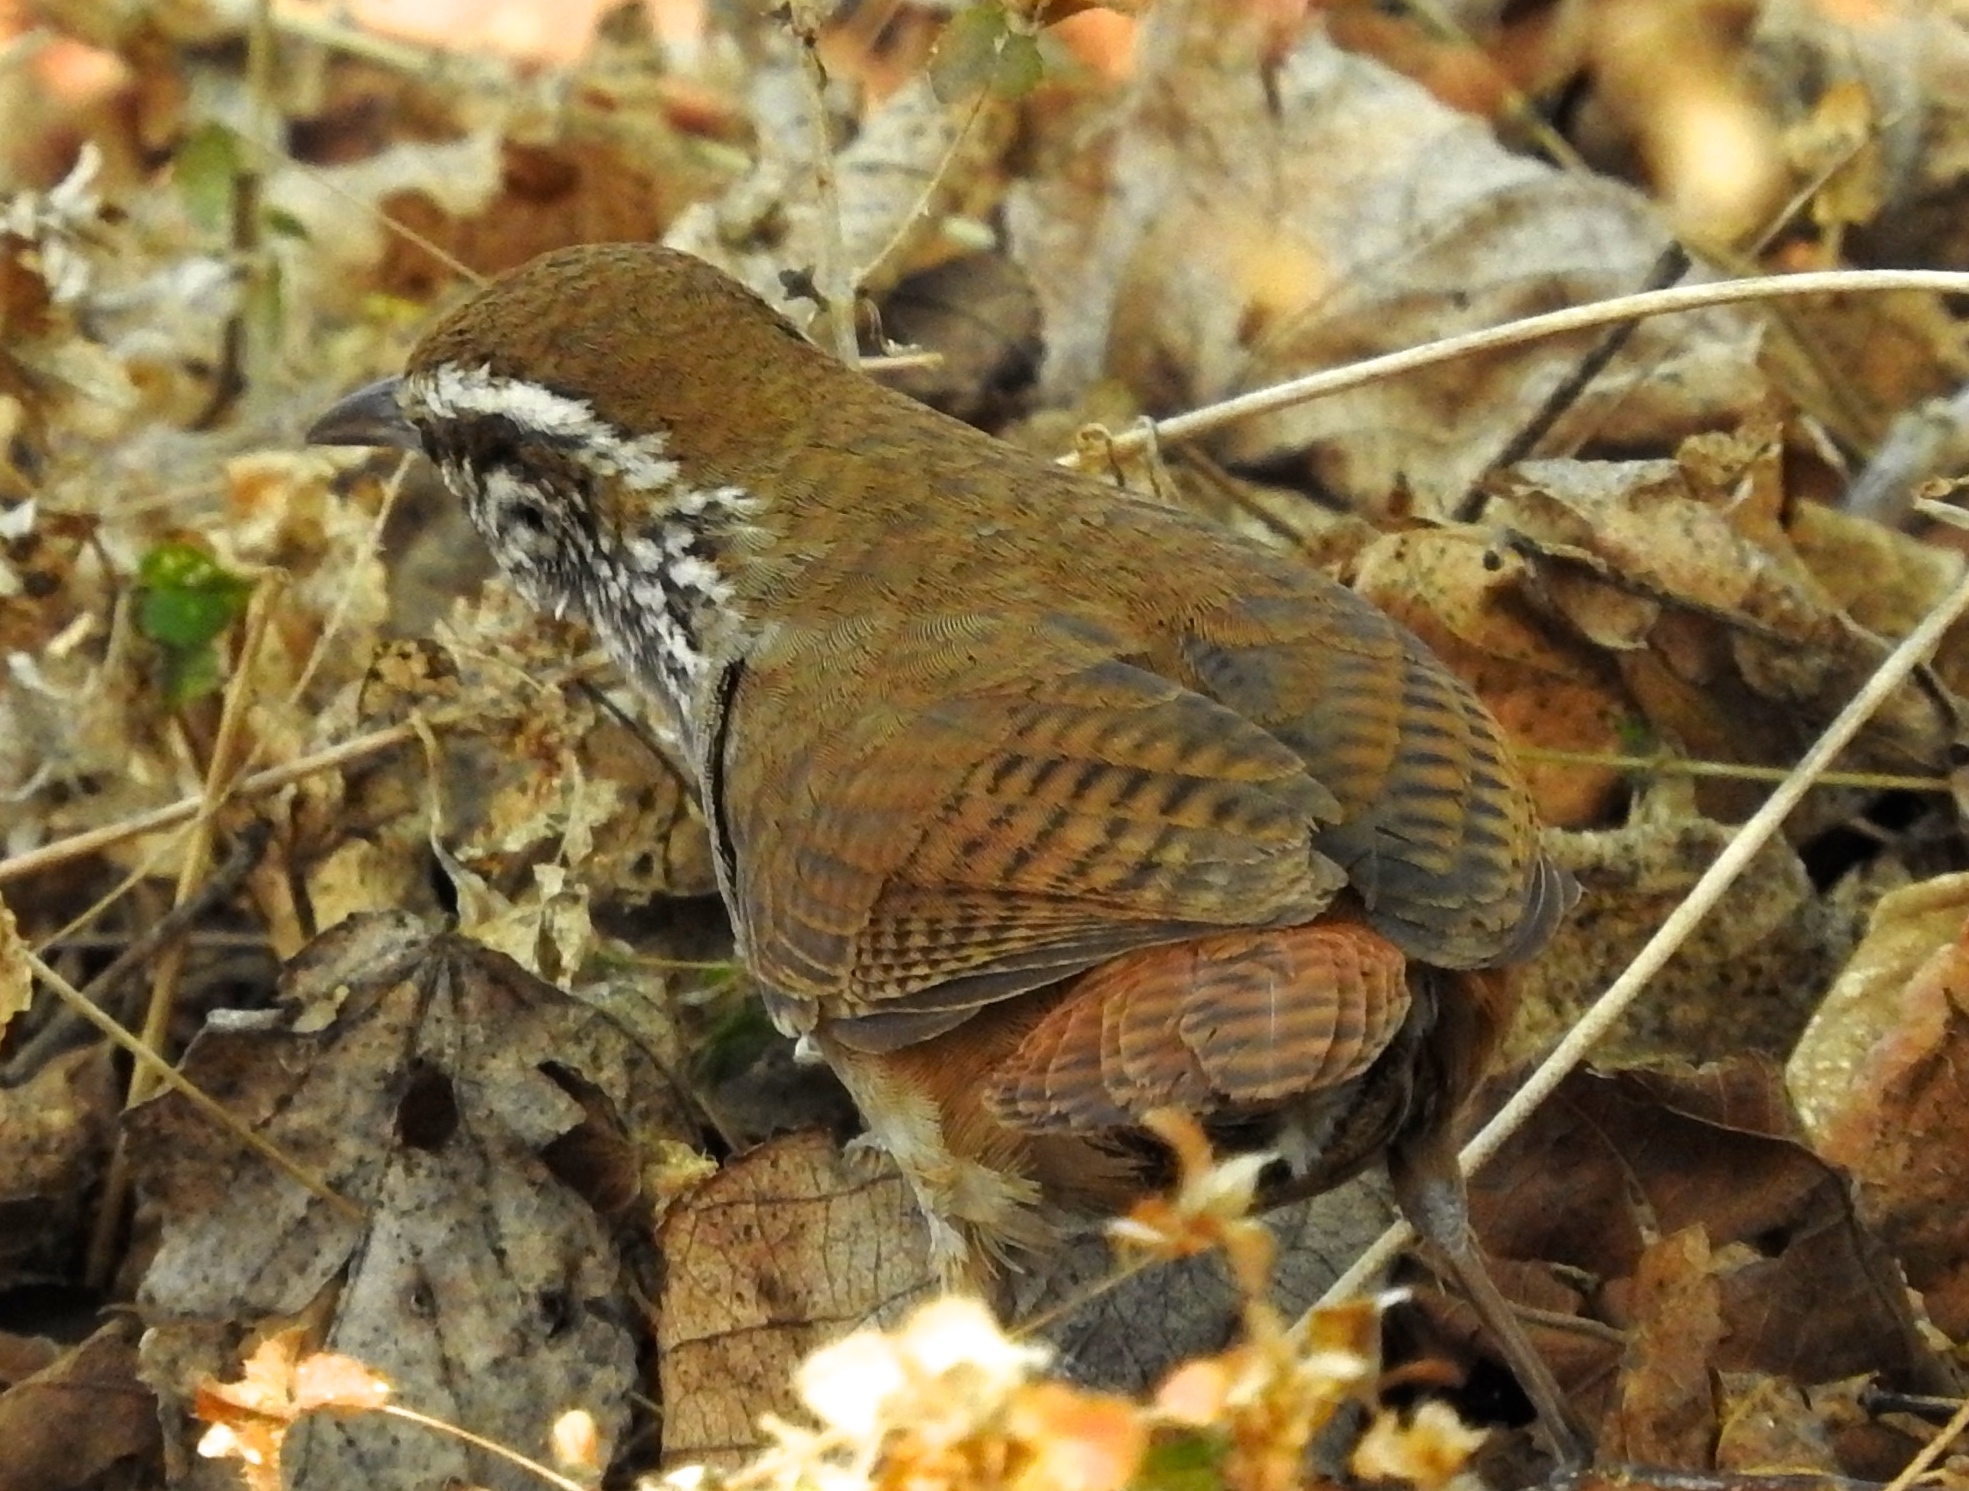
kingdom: Animalia
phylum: Chordata
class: Aves
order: Passeriformes
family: Troglodytidae
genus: Thryophilus
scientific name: Thryophilus sinaloa
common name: Sinaloa wren
